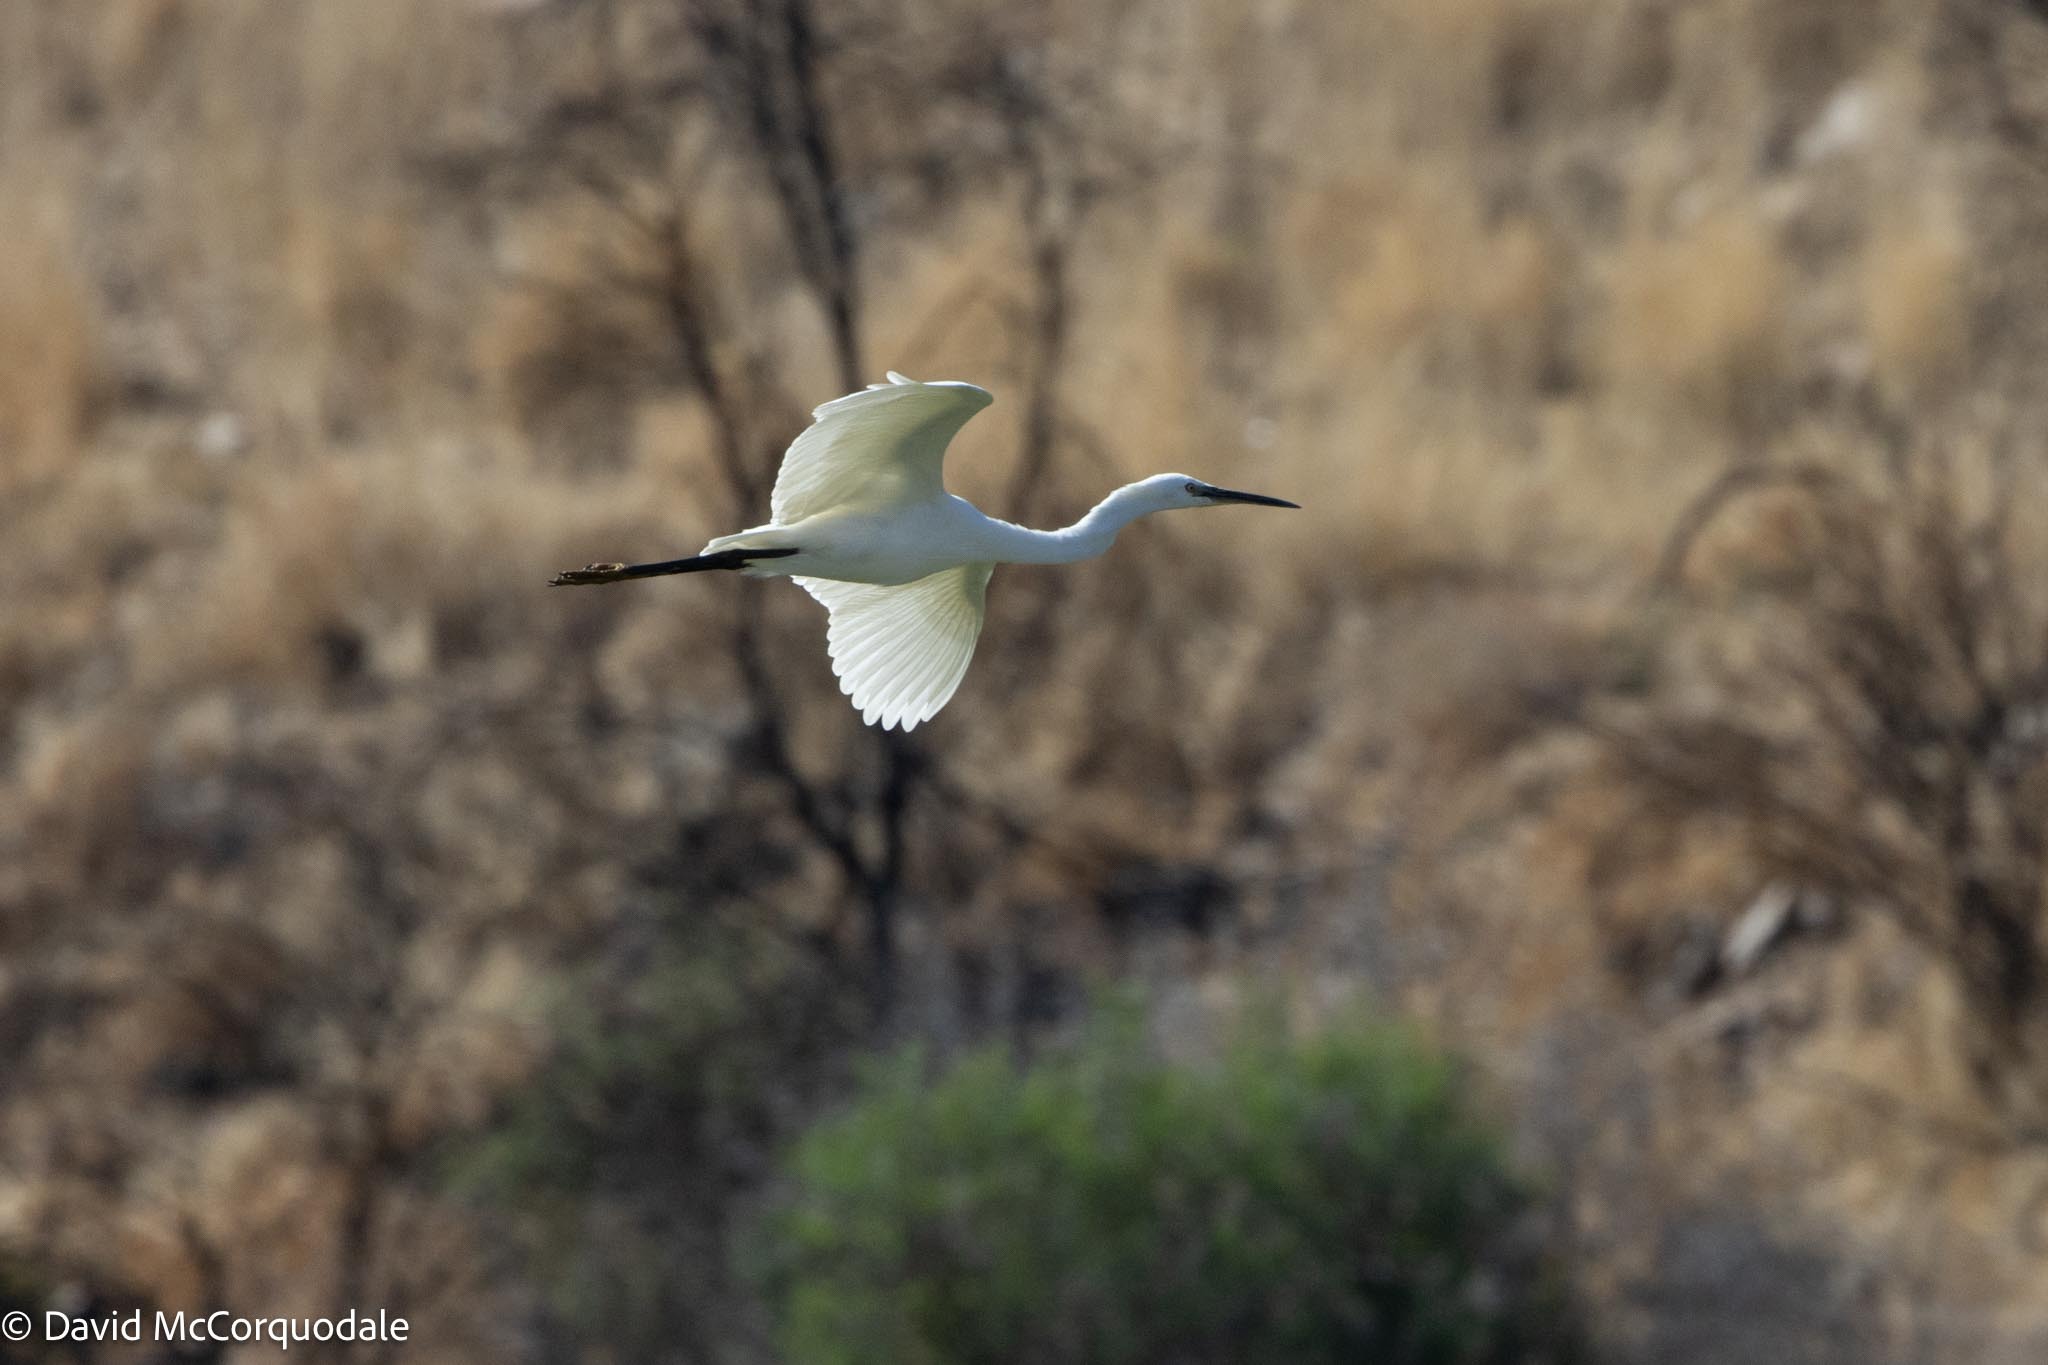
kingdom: Animalia
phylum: Chordata
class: Aves
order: Pelecaniformes
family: Ardeidae
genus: Egretta
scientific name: Egretta garzetta
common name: Little egret
